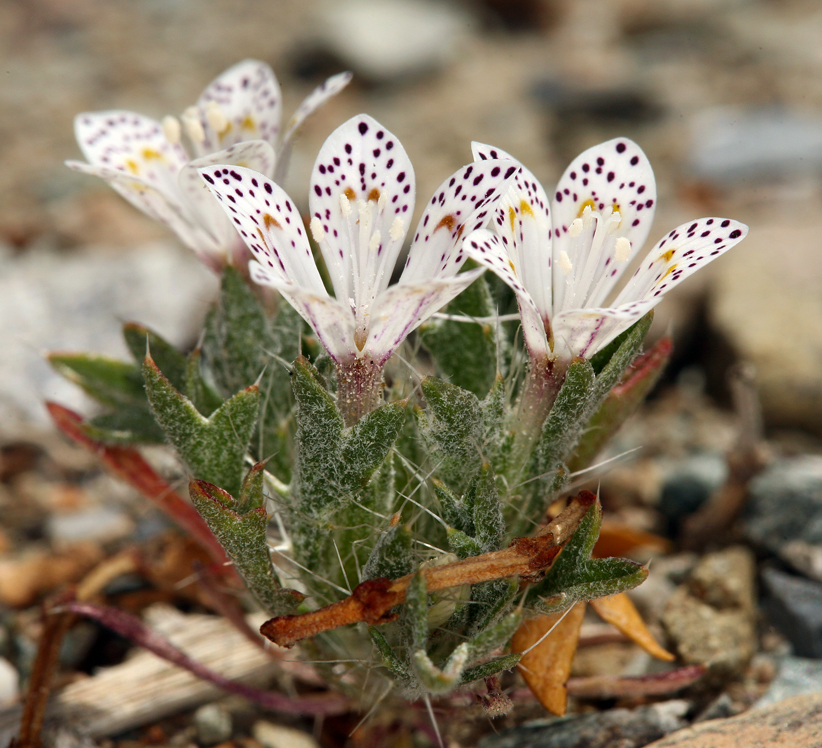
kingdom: Plantae
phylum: Tracheophyta
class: Magnoliopsida
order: Ericales
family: Polemoniaceae
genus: Langloisia
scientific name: Langloisia setosissima
